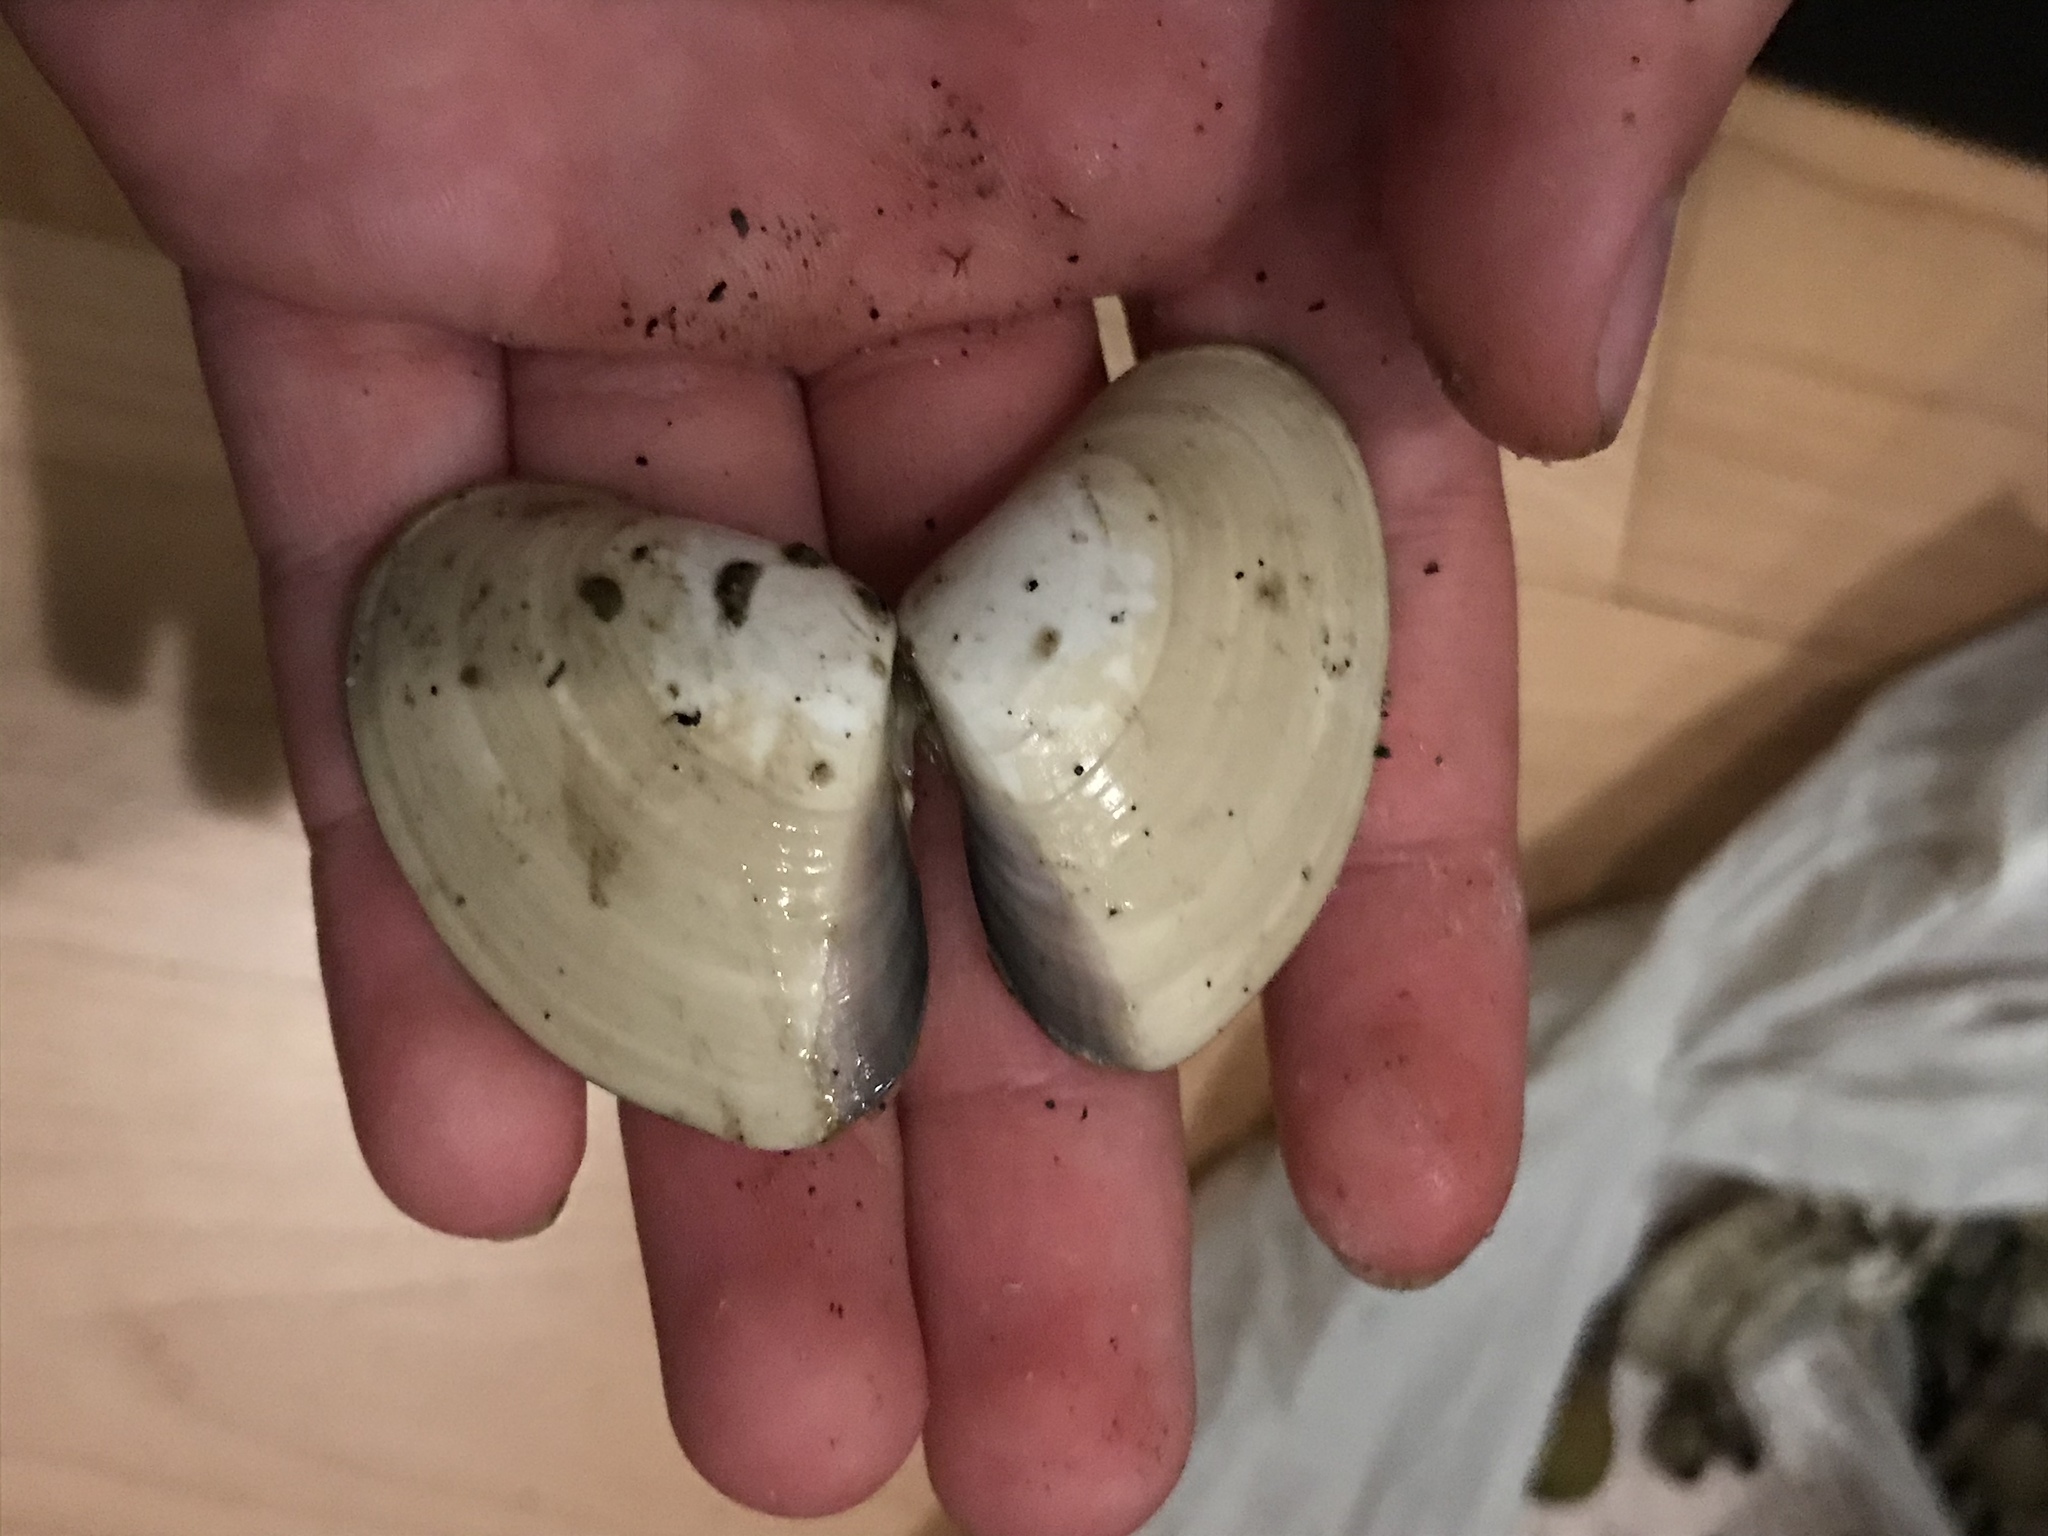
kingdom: Animalia
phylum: Mollusca
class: Bivalvia
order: Venerida
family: Veneridae
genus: Tivela
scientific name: Tivela stultorum
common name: Pismo clam
